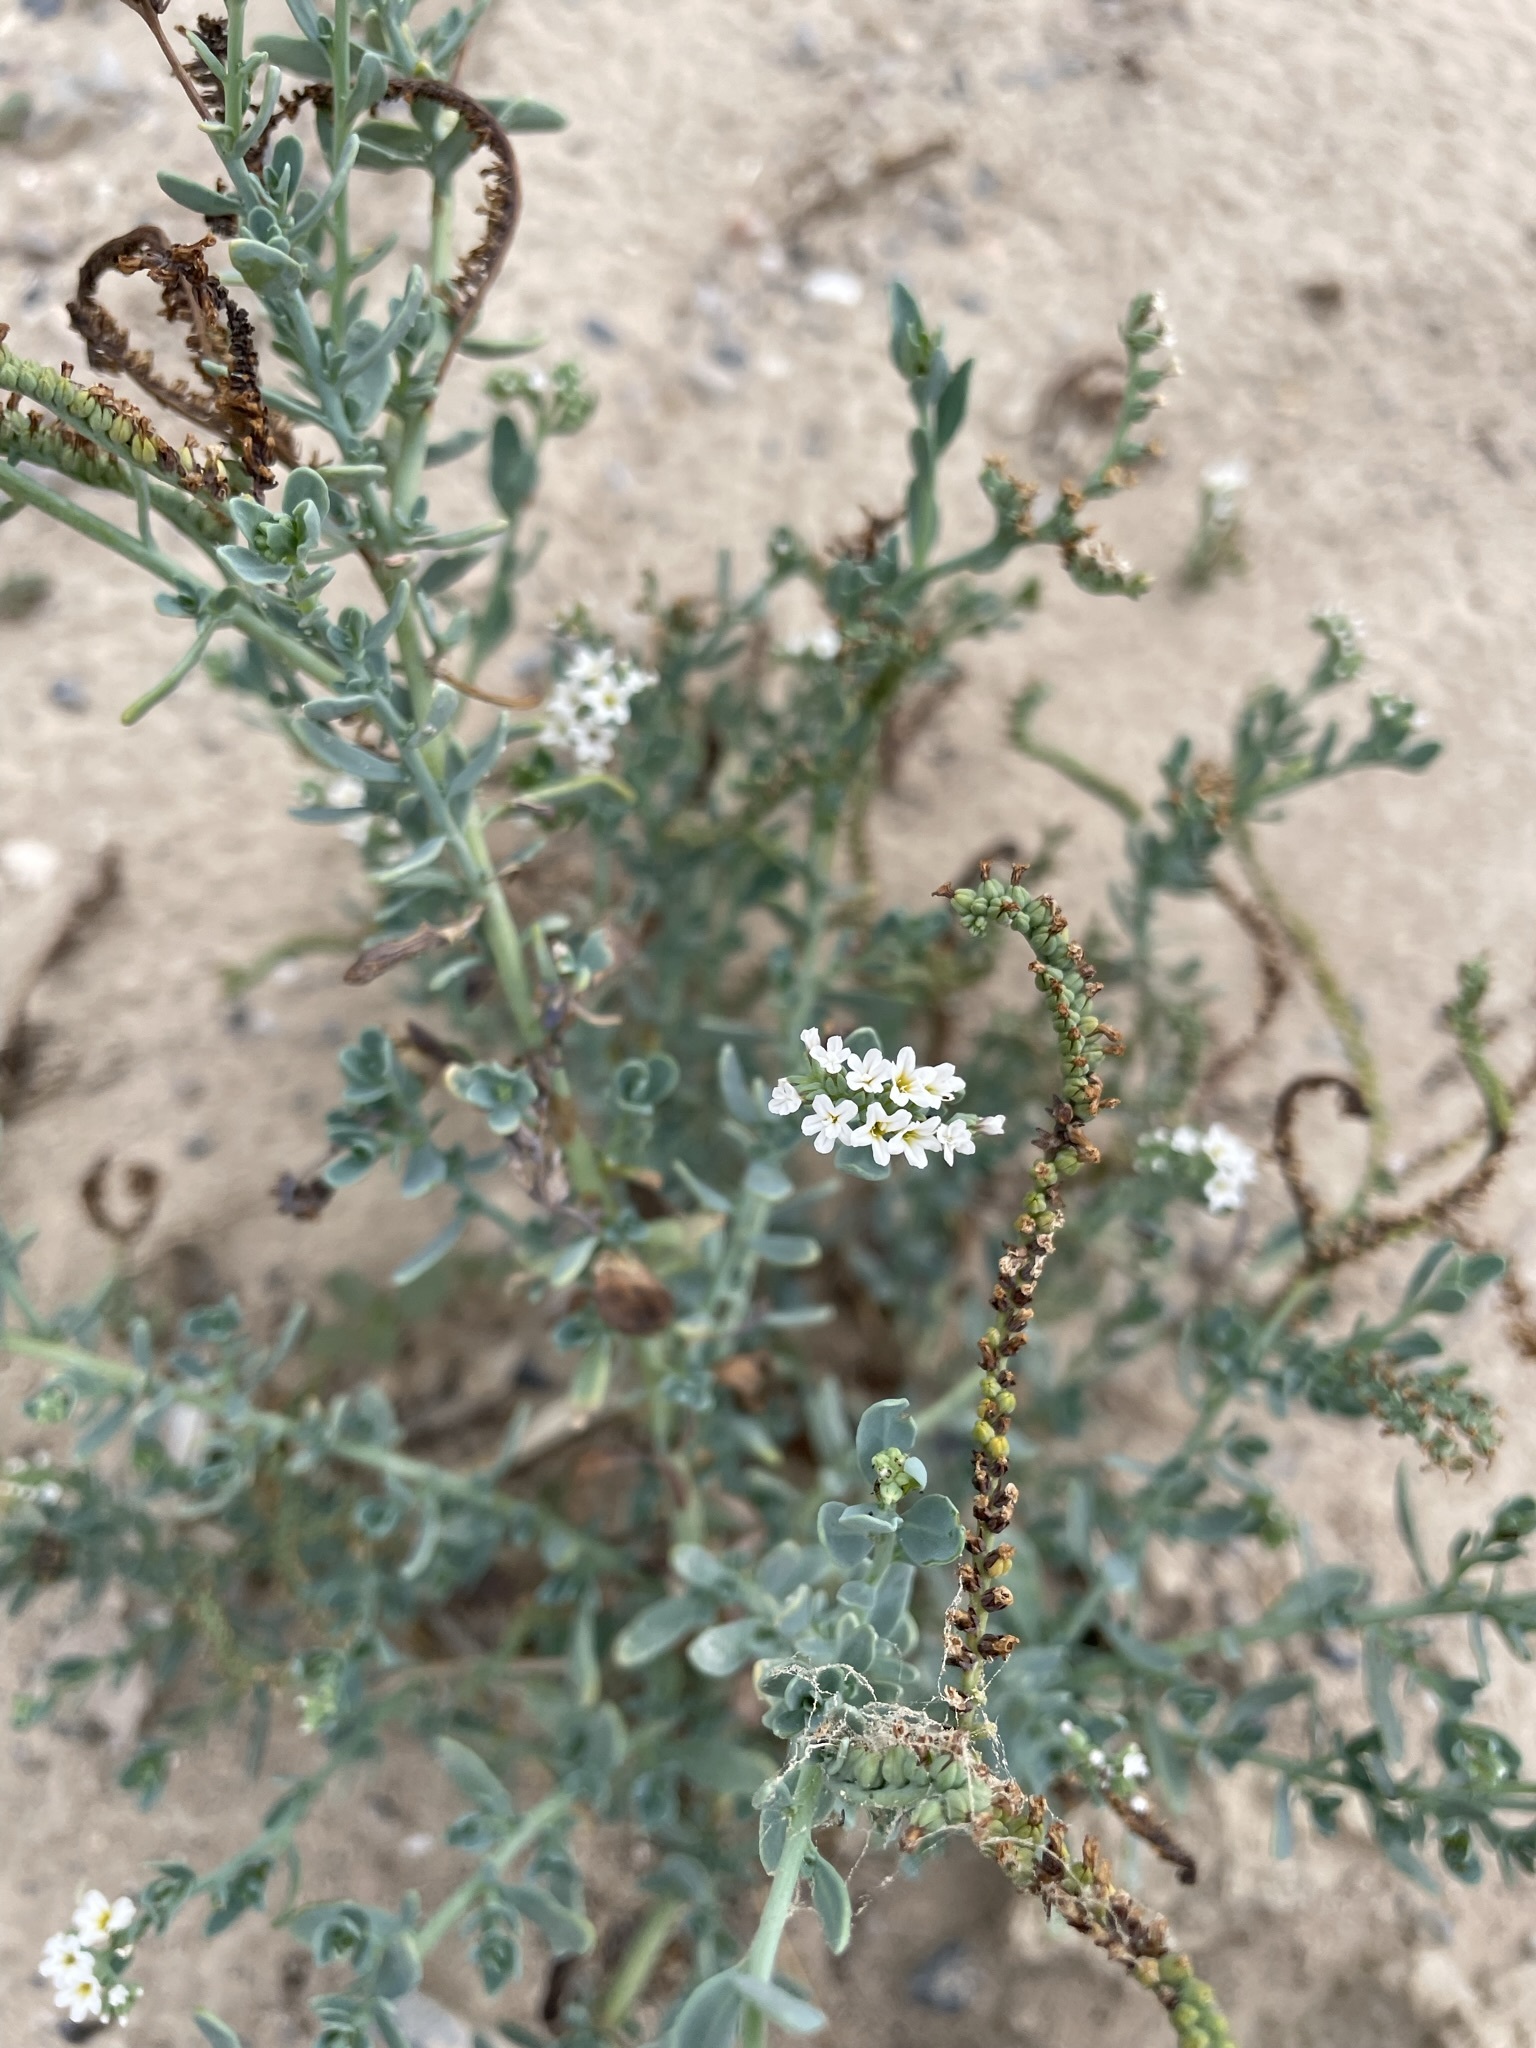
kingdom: Plantae
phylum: Tracheophyta
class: Magnoliopsida
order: Boraginales
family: Heliotropiaceae
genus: Heliotropium
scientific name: Heliotropium curassavicum
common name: Seaside heliotrope
